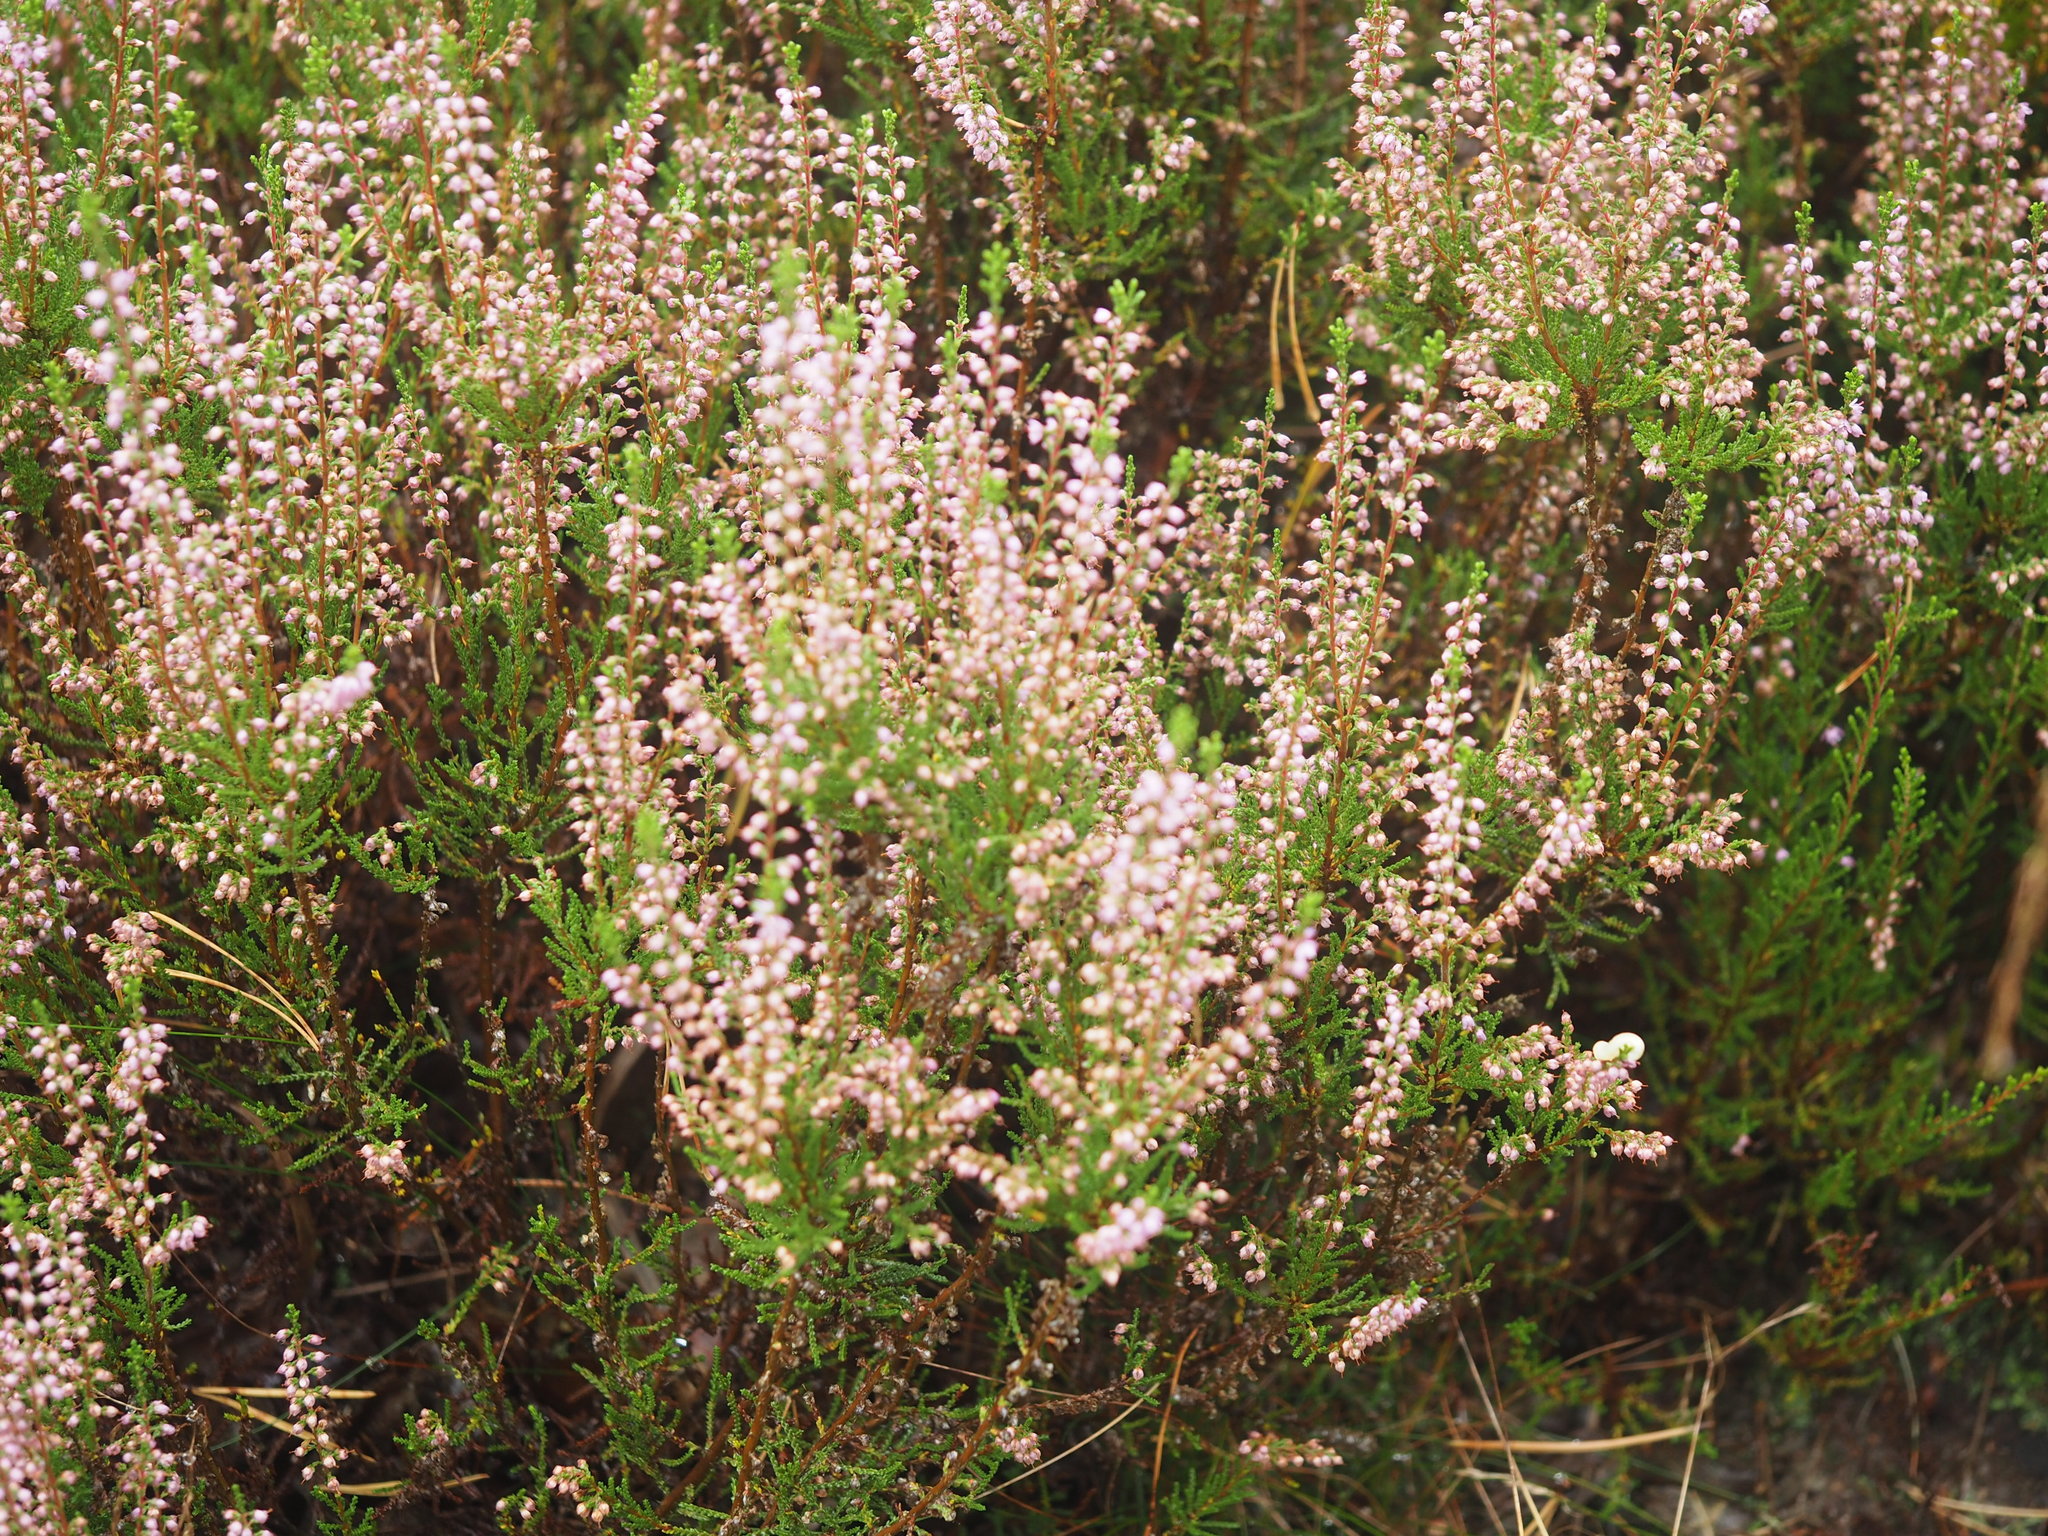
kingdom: Plantae
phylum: Tracheophyta
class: Magnoliopsida
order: Ericales
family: Ericaceae
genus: Calluna
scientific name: Calluna vulgaris
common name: Heather
